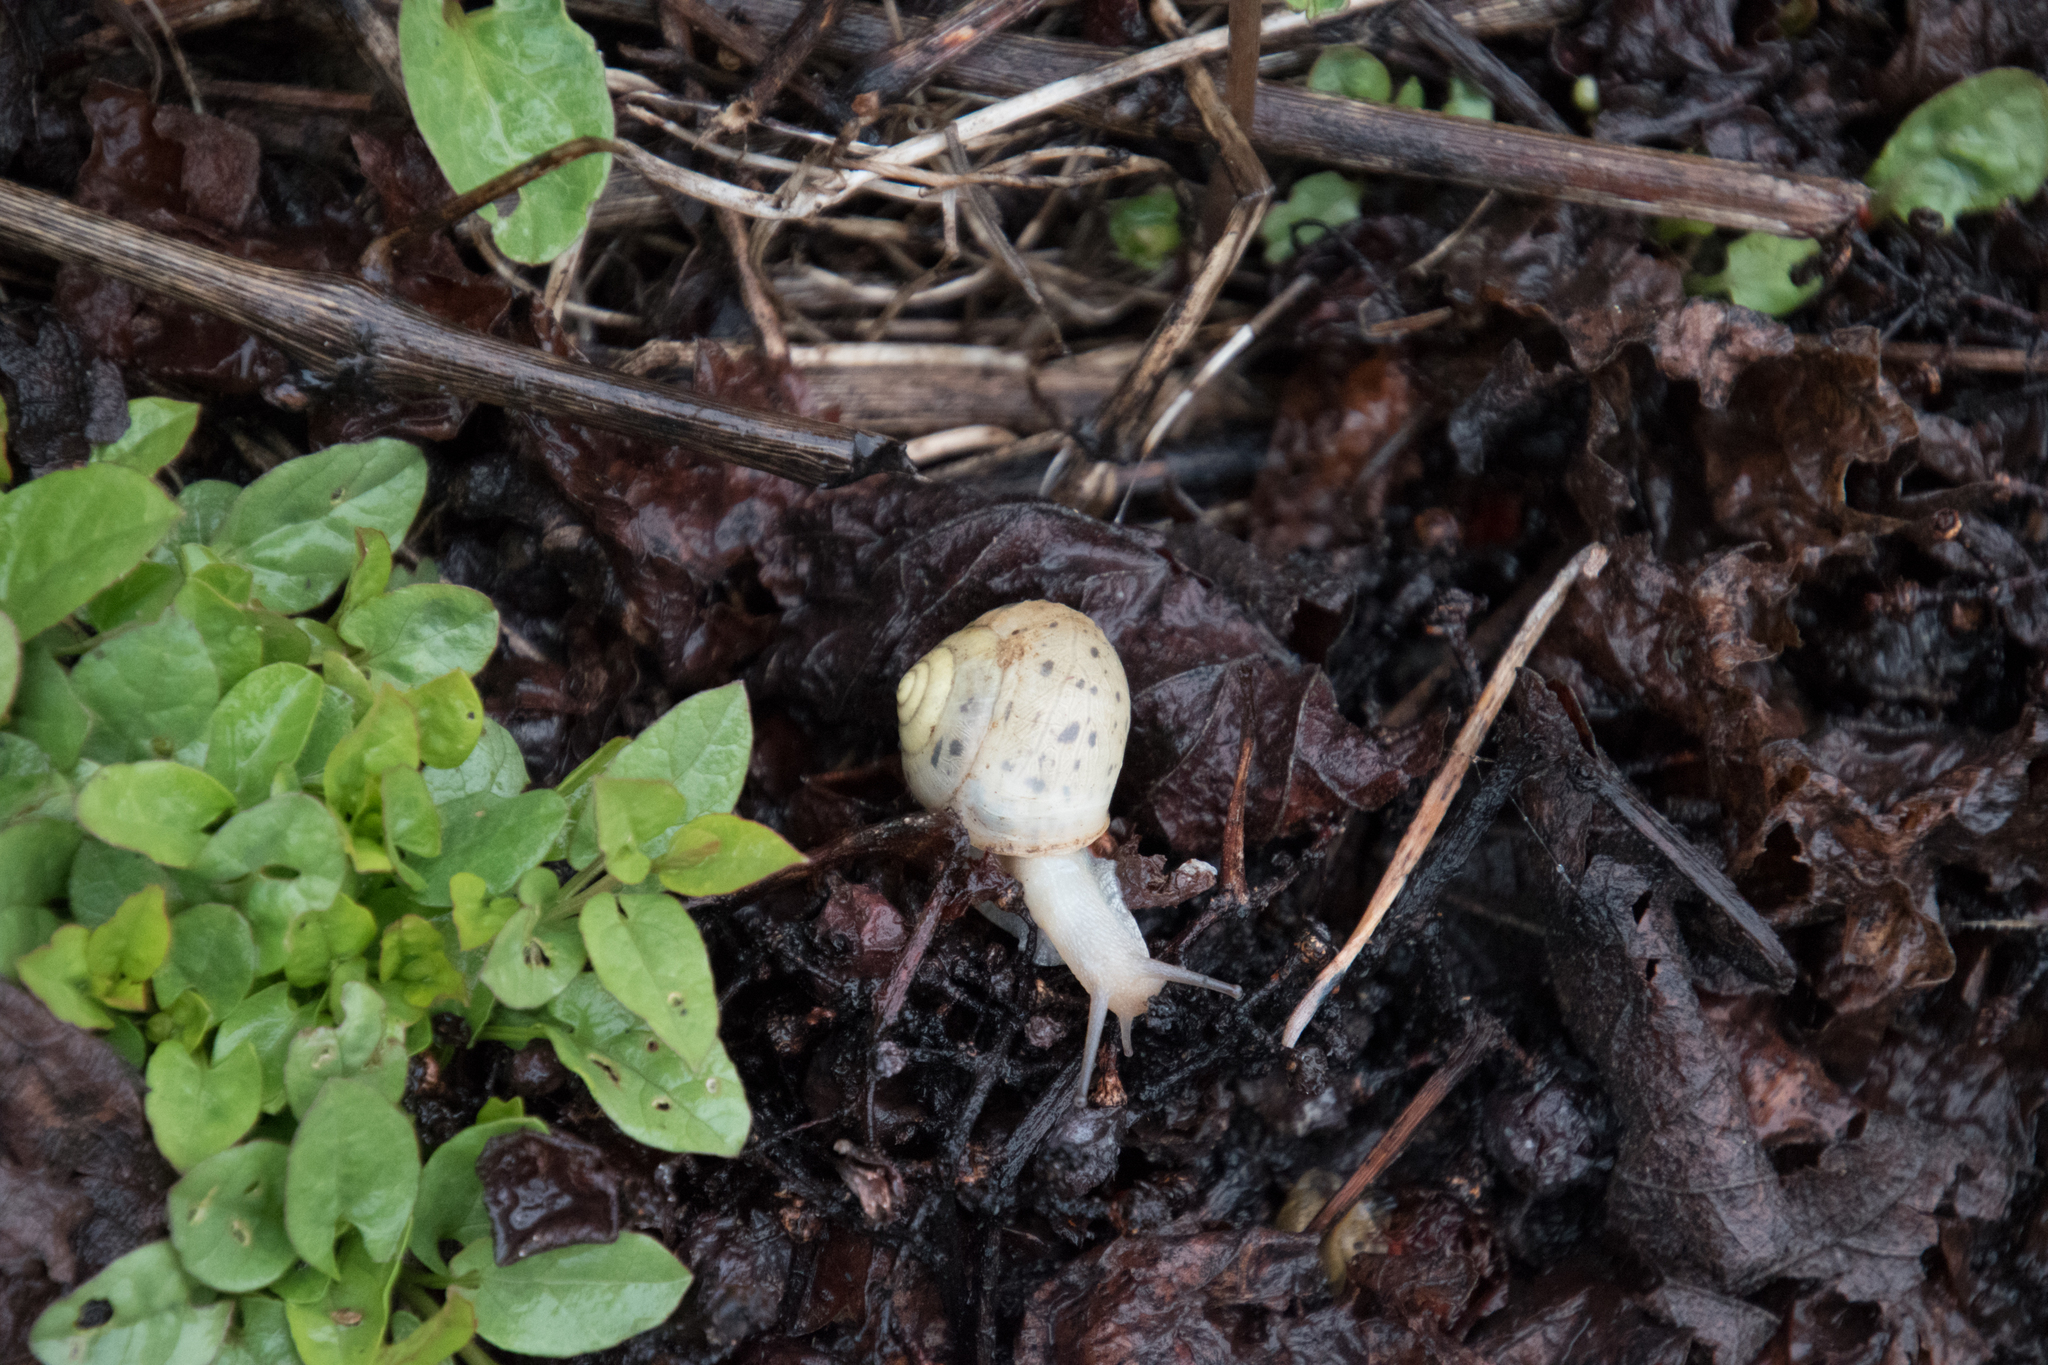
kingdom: Animalia
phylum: Mollusca
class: Gastropoda
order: Stylommatophora
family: Camaenidae
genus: Fruticicola
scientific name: Fruticicola fruticum
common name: Bush snail
